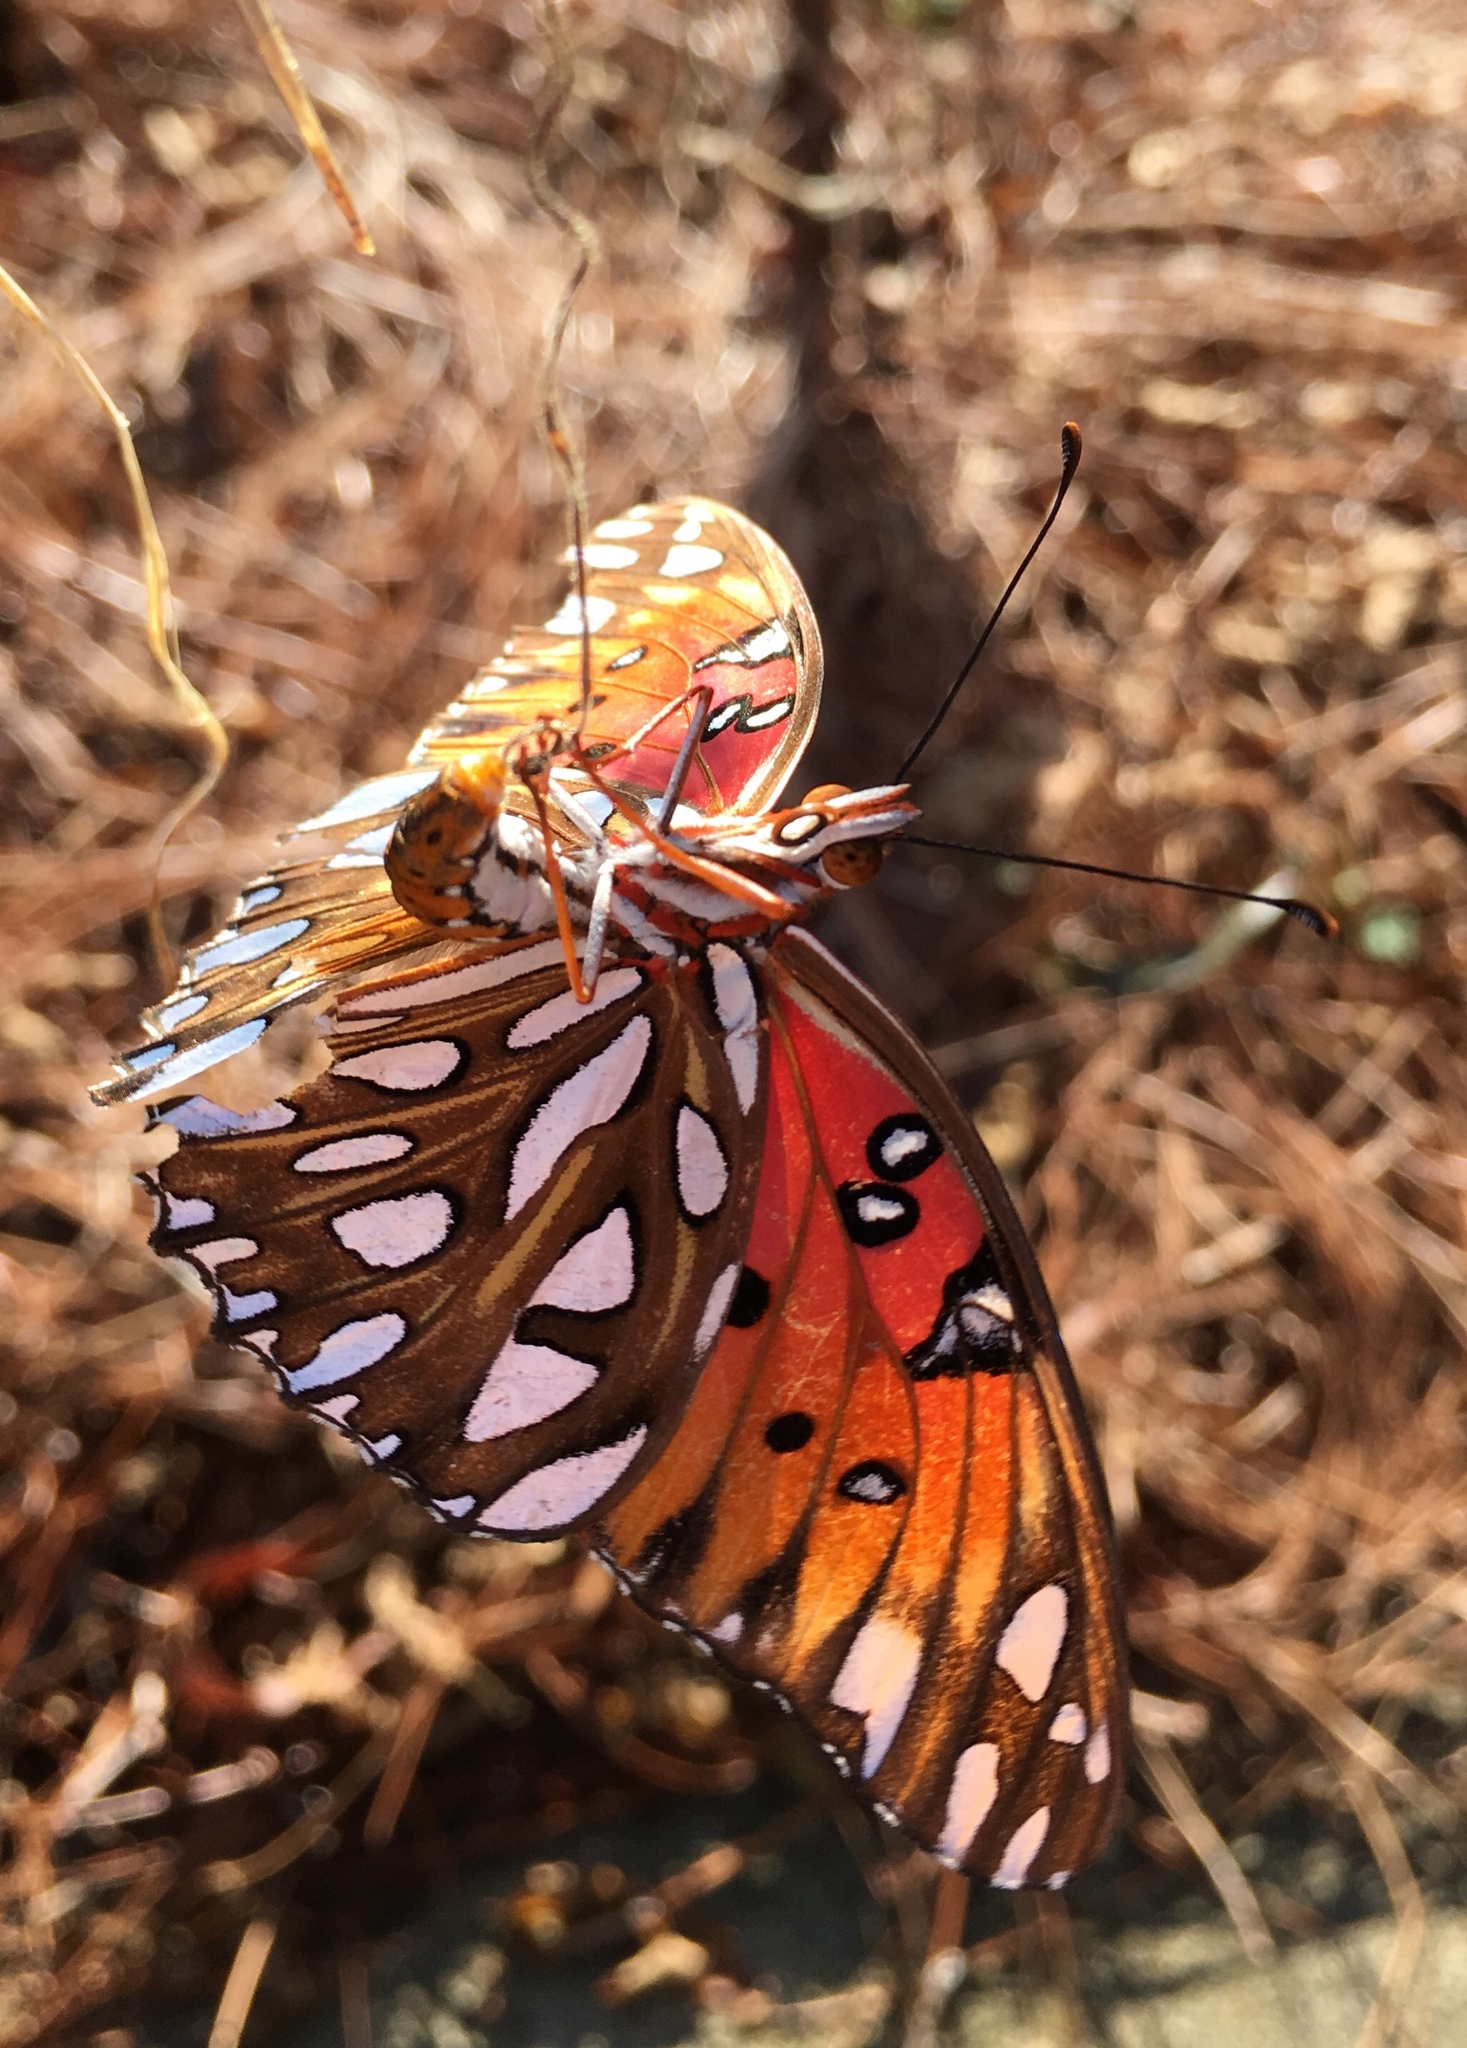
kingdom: Animalia
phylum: Arthropoda
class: Insecta
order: Lepidoptera
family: Nymphalidae
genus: Dione
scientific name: Dione vanillae
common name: Gulf fritillary
